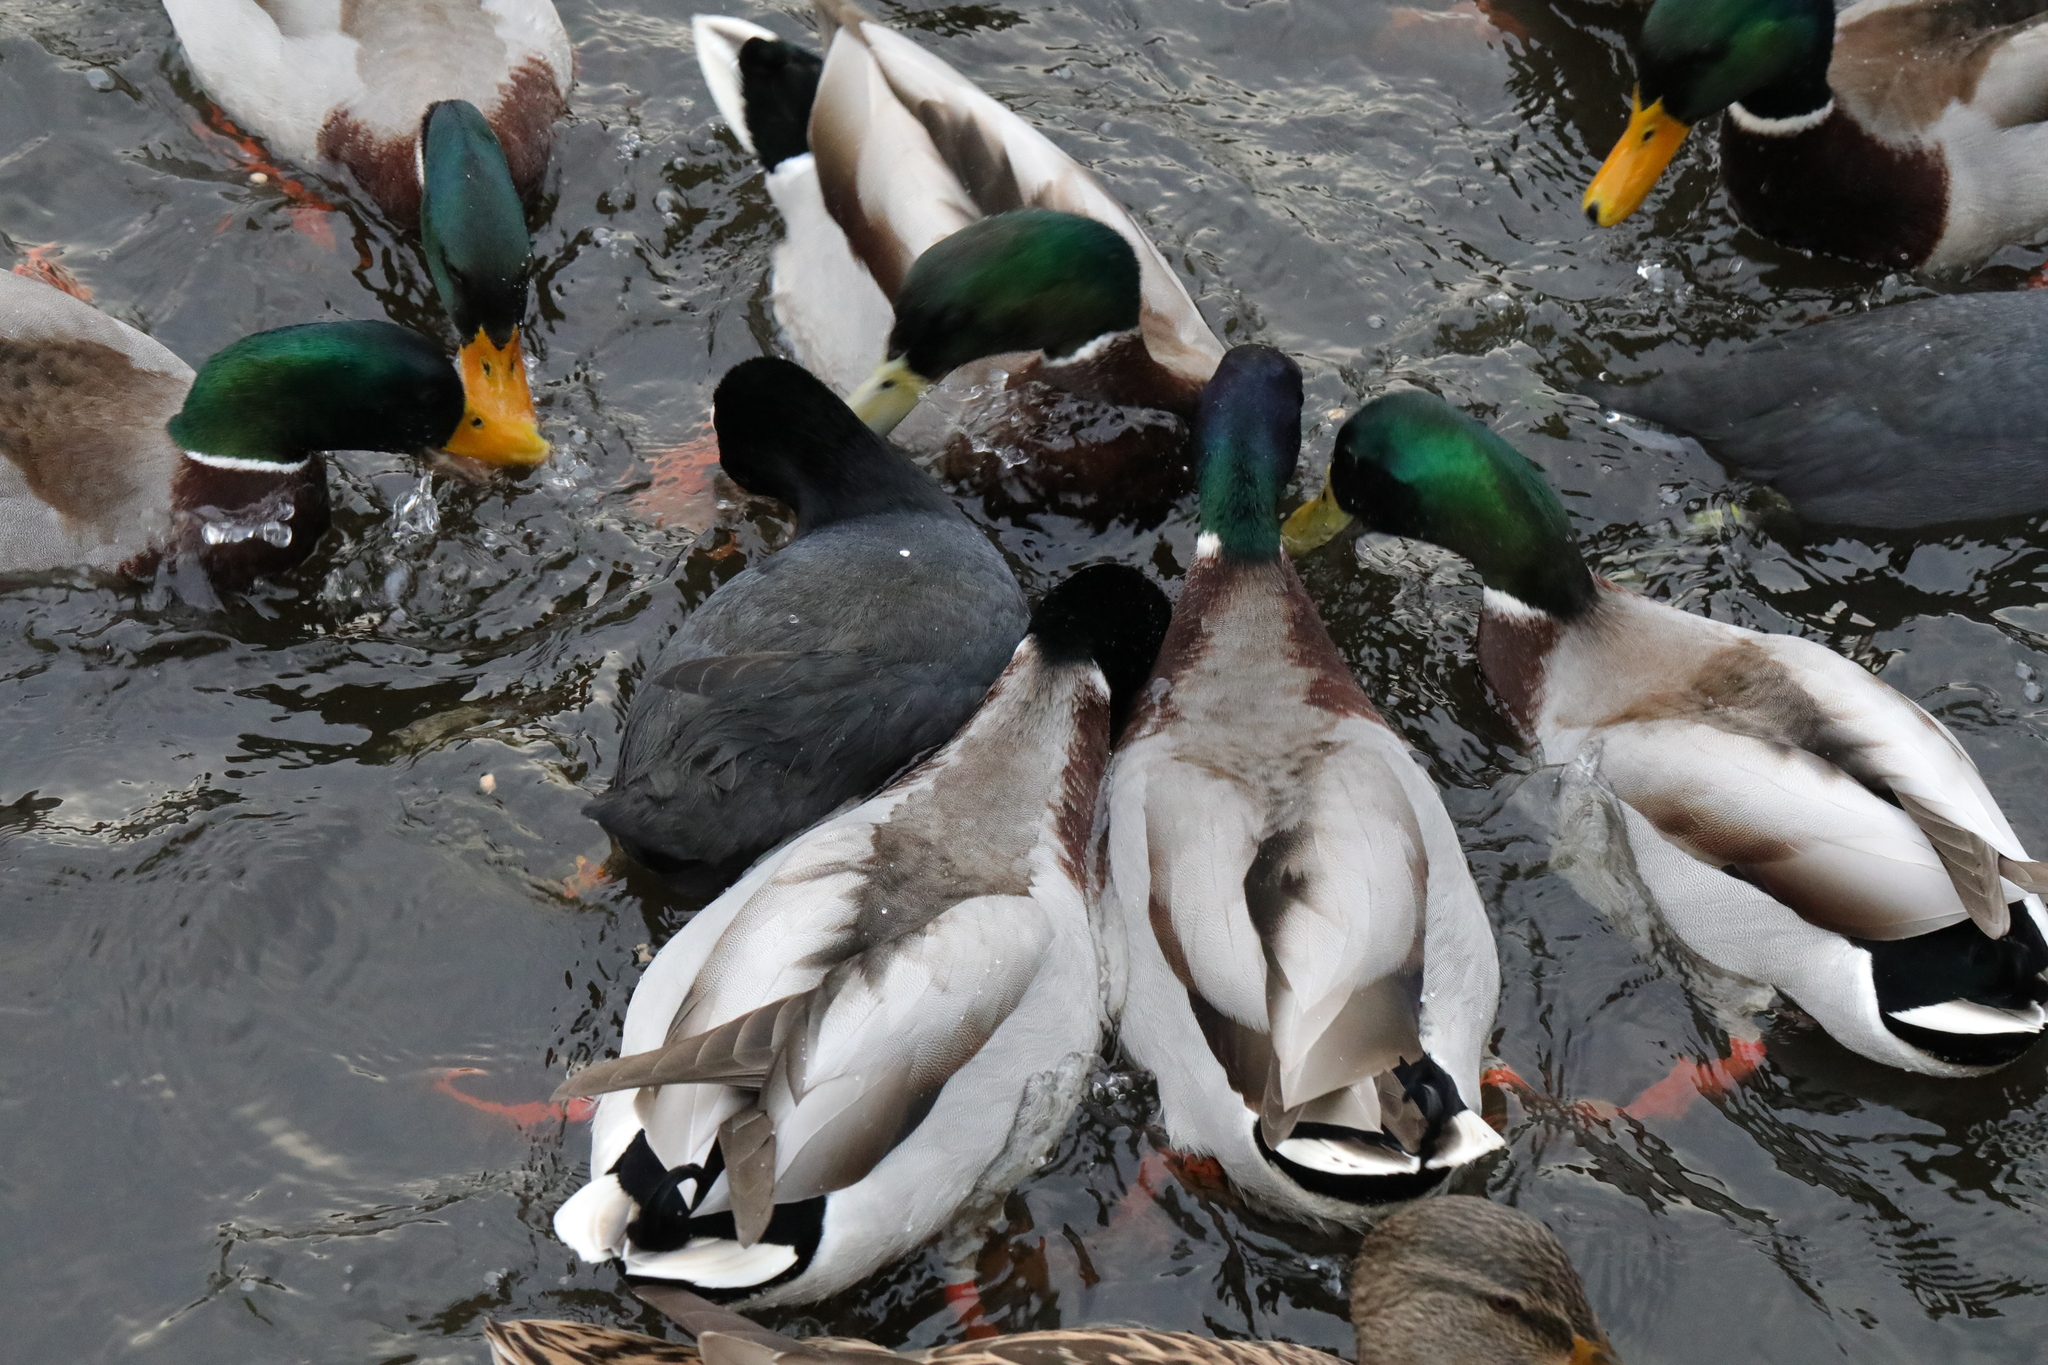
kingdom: Animalia
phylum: Chordata
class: Aves
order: Anseriformes
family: Anatidae
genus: Anas
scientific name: Anas platyrhynchos
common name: Mallard
